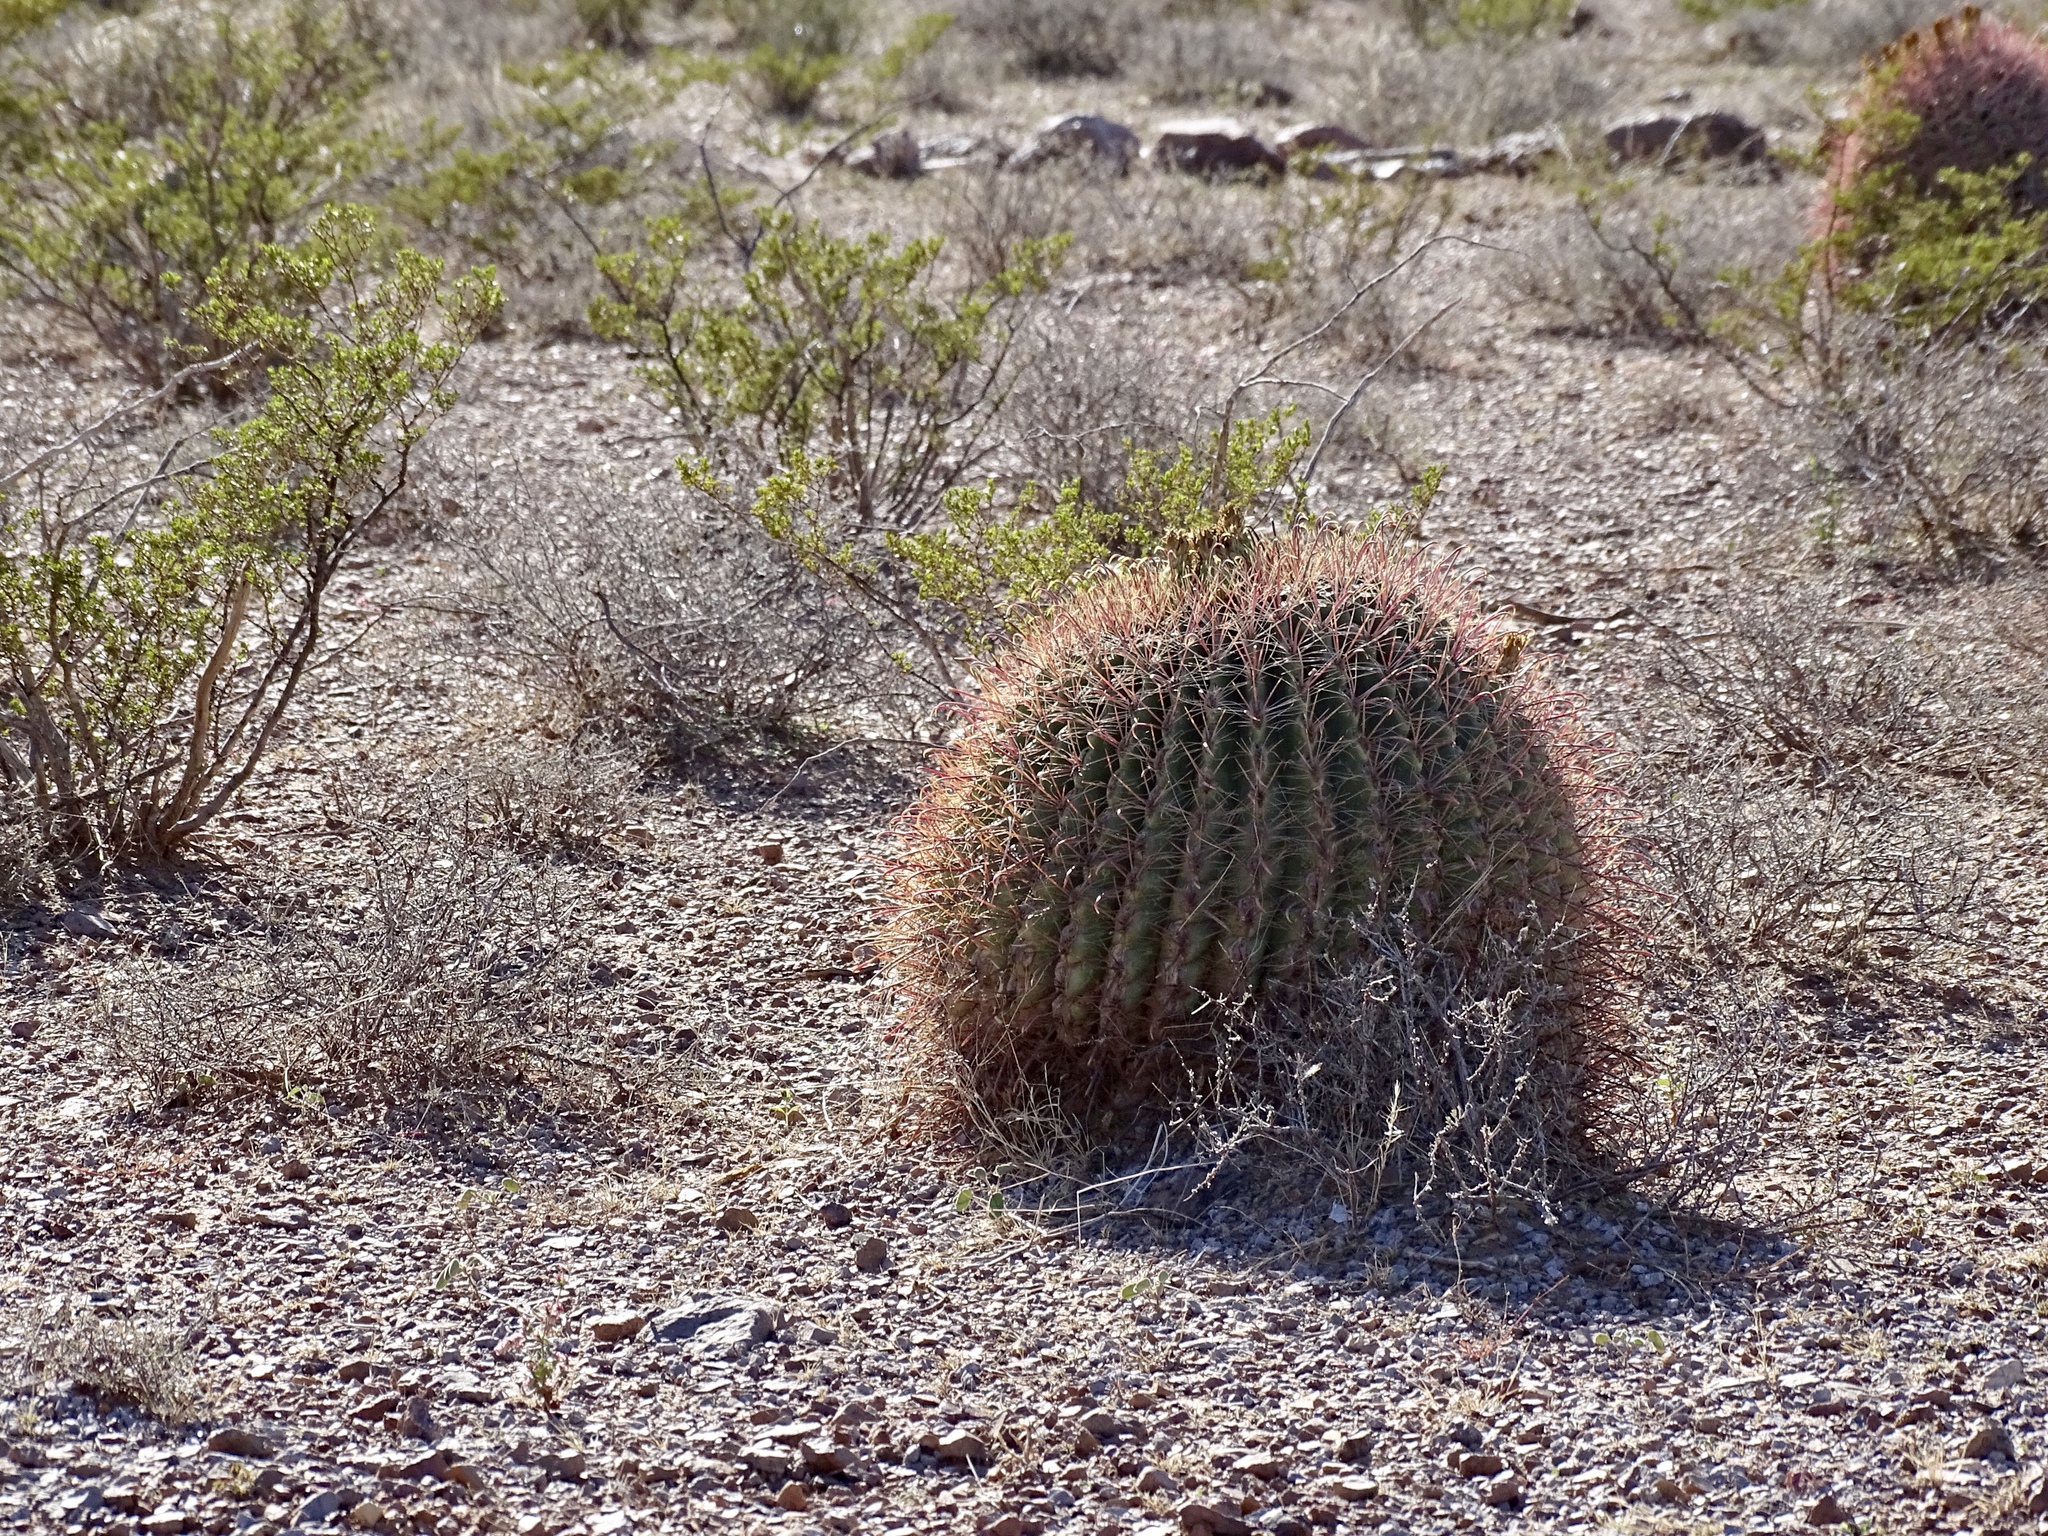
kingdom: Plantae
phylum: Tracheophyta
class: Magnoliopsida
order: Caryophyllales
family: Cactaceae
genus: Ferocactus
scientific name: Ferocactus wislizeni
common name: Candy barrel cactus
